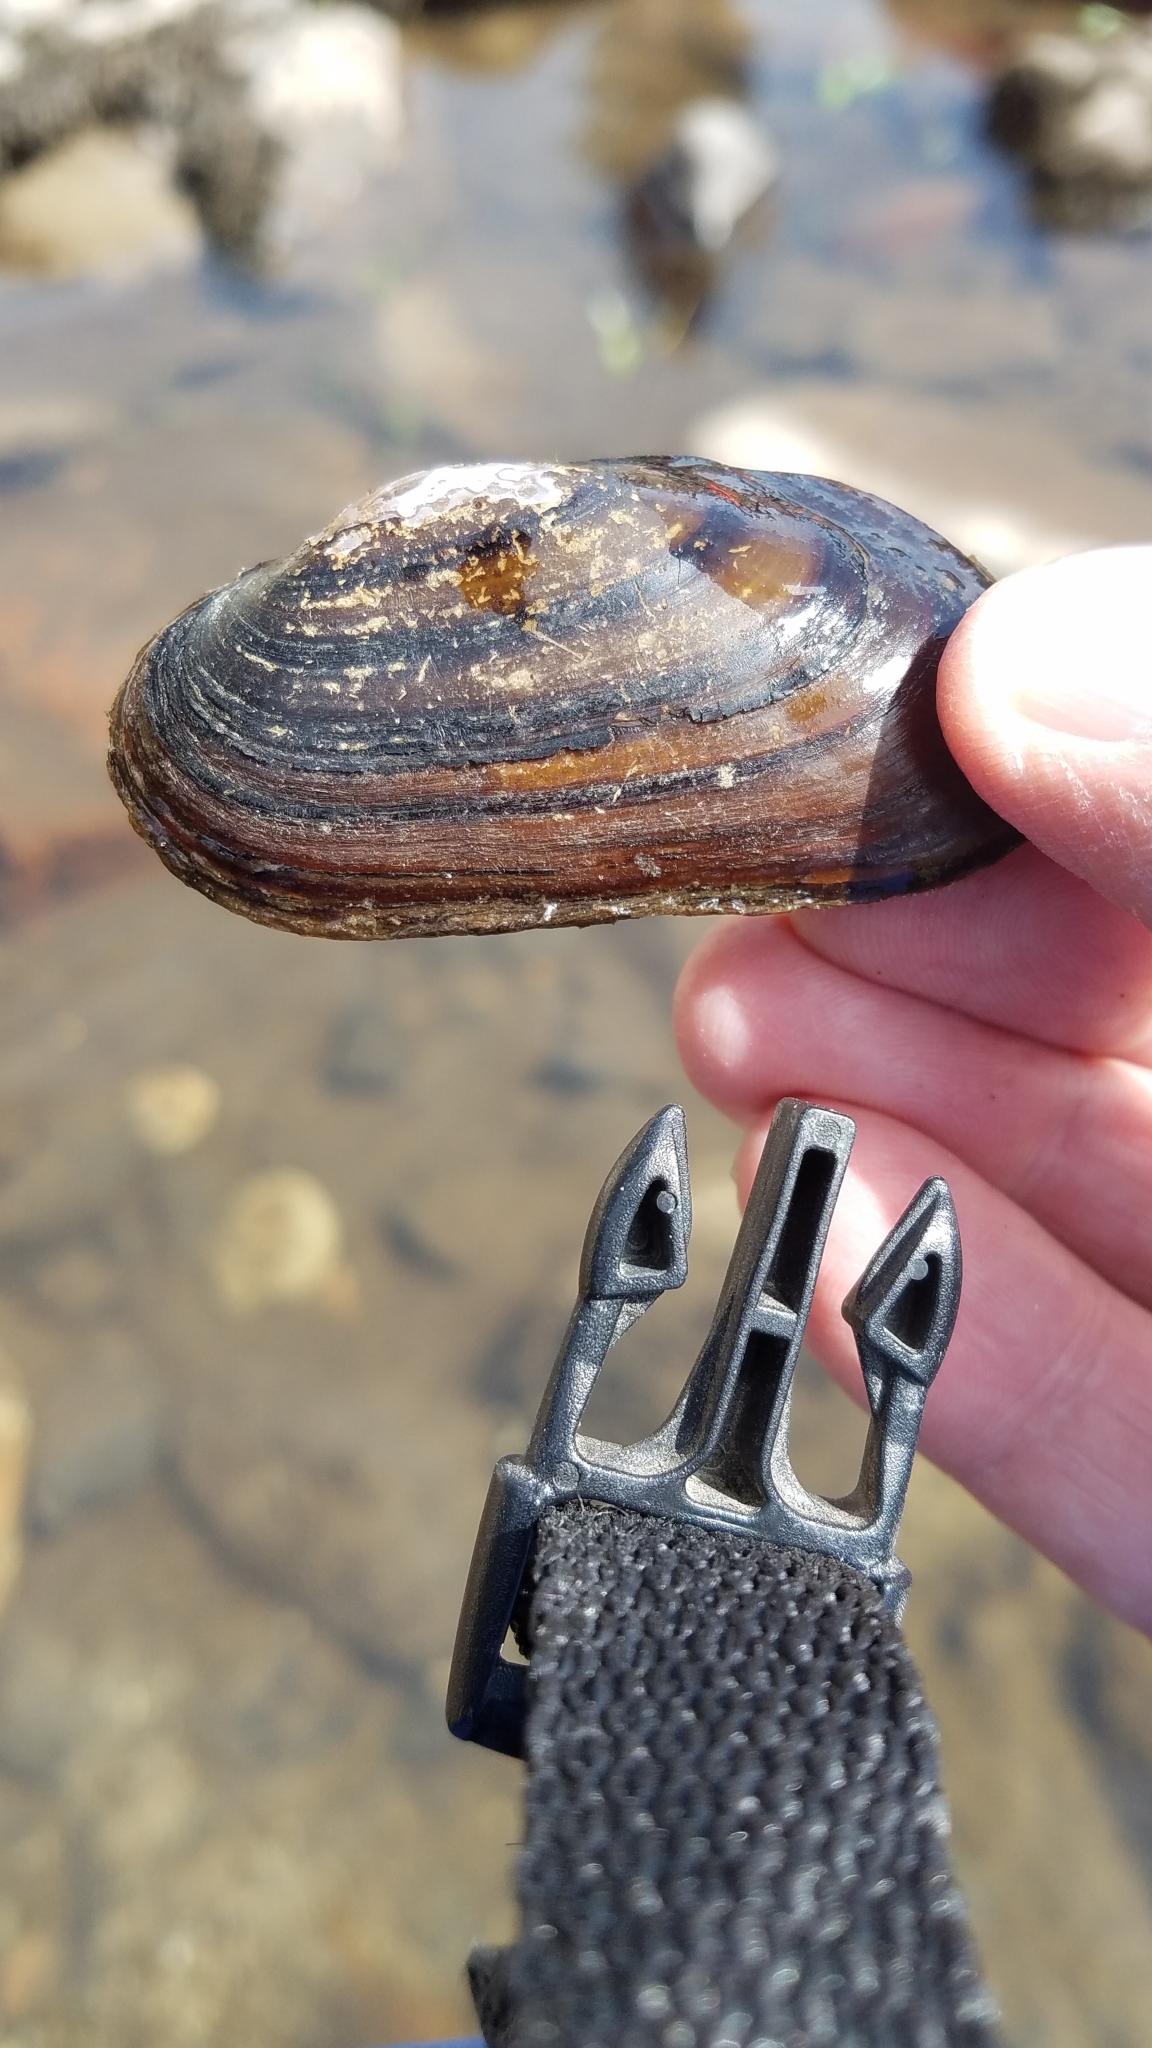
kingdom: Animalia
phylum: Mollusca
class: Bivalvia
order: Unionida
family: Margaritiferidae
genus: Margaritifera
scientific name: Margaritifera falcata
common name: Western pearlshell
